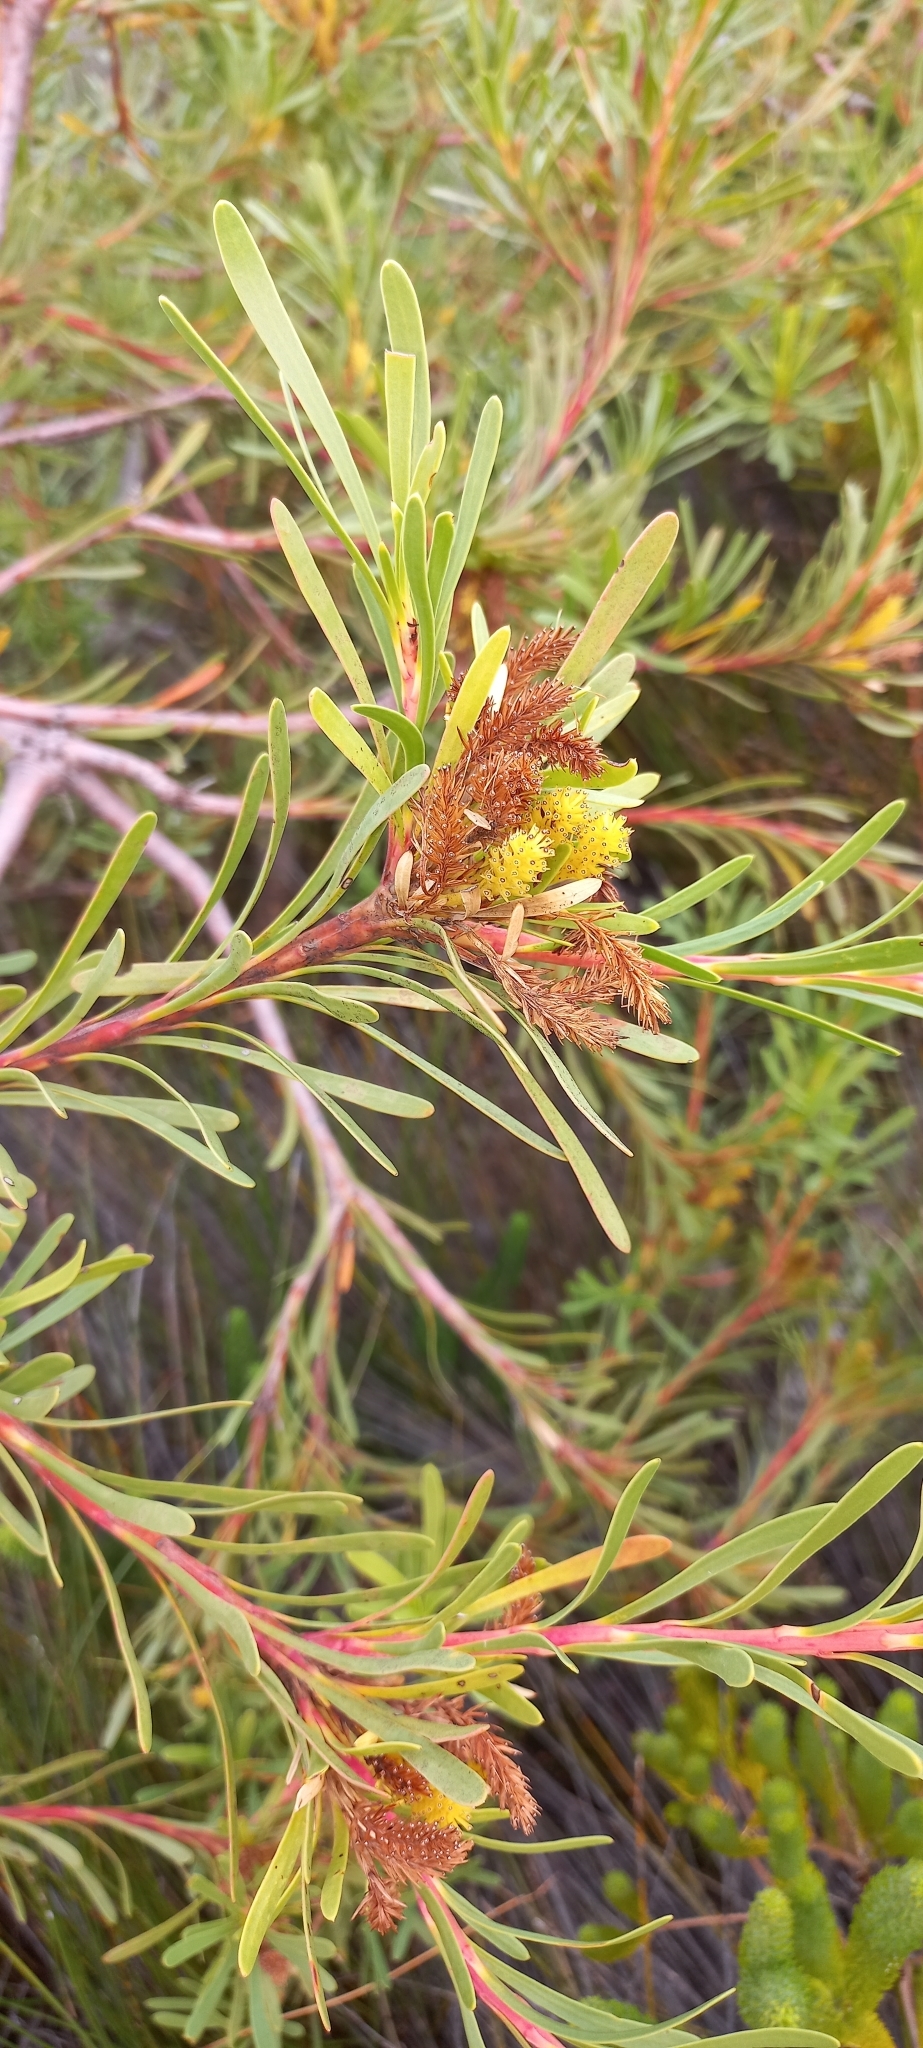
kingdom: Plantae
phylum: Tracheophyta
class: Magnoliopsida
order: Proteales
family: Proteaceae
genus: Aulax
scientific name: Aulax umbellata
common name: Broad-leaf featherbush
